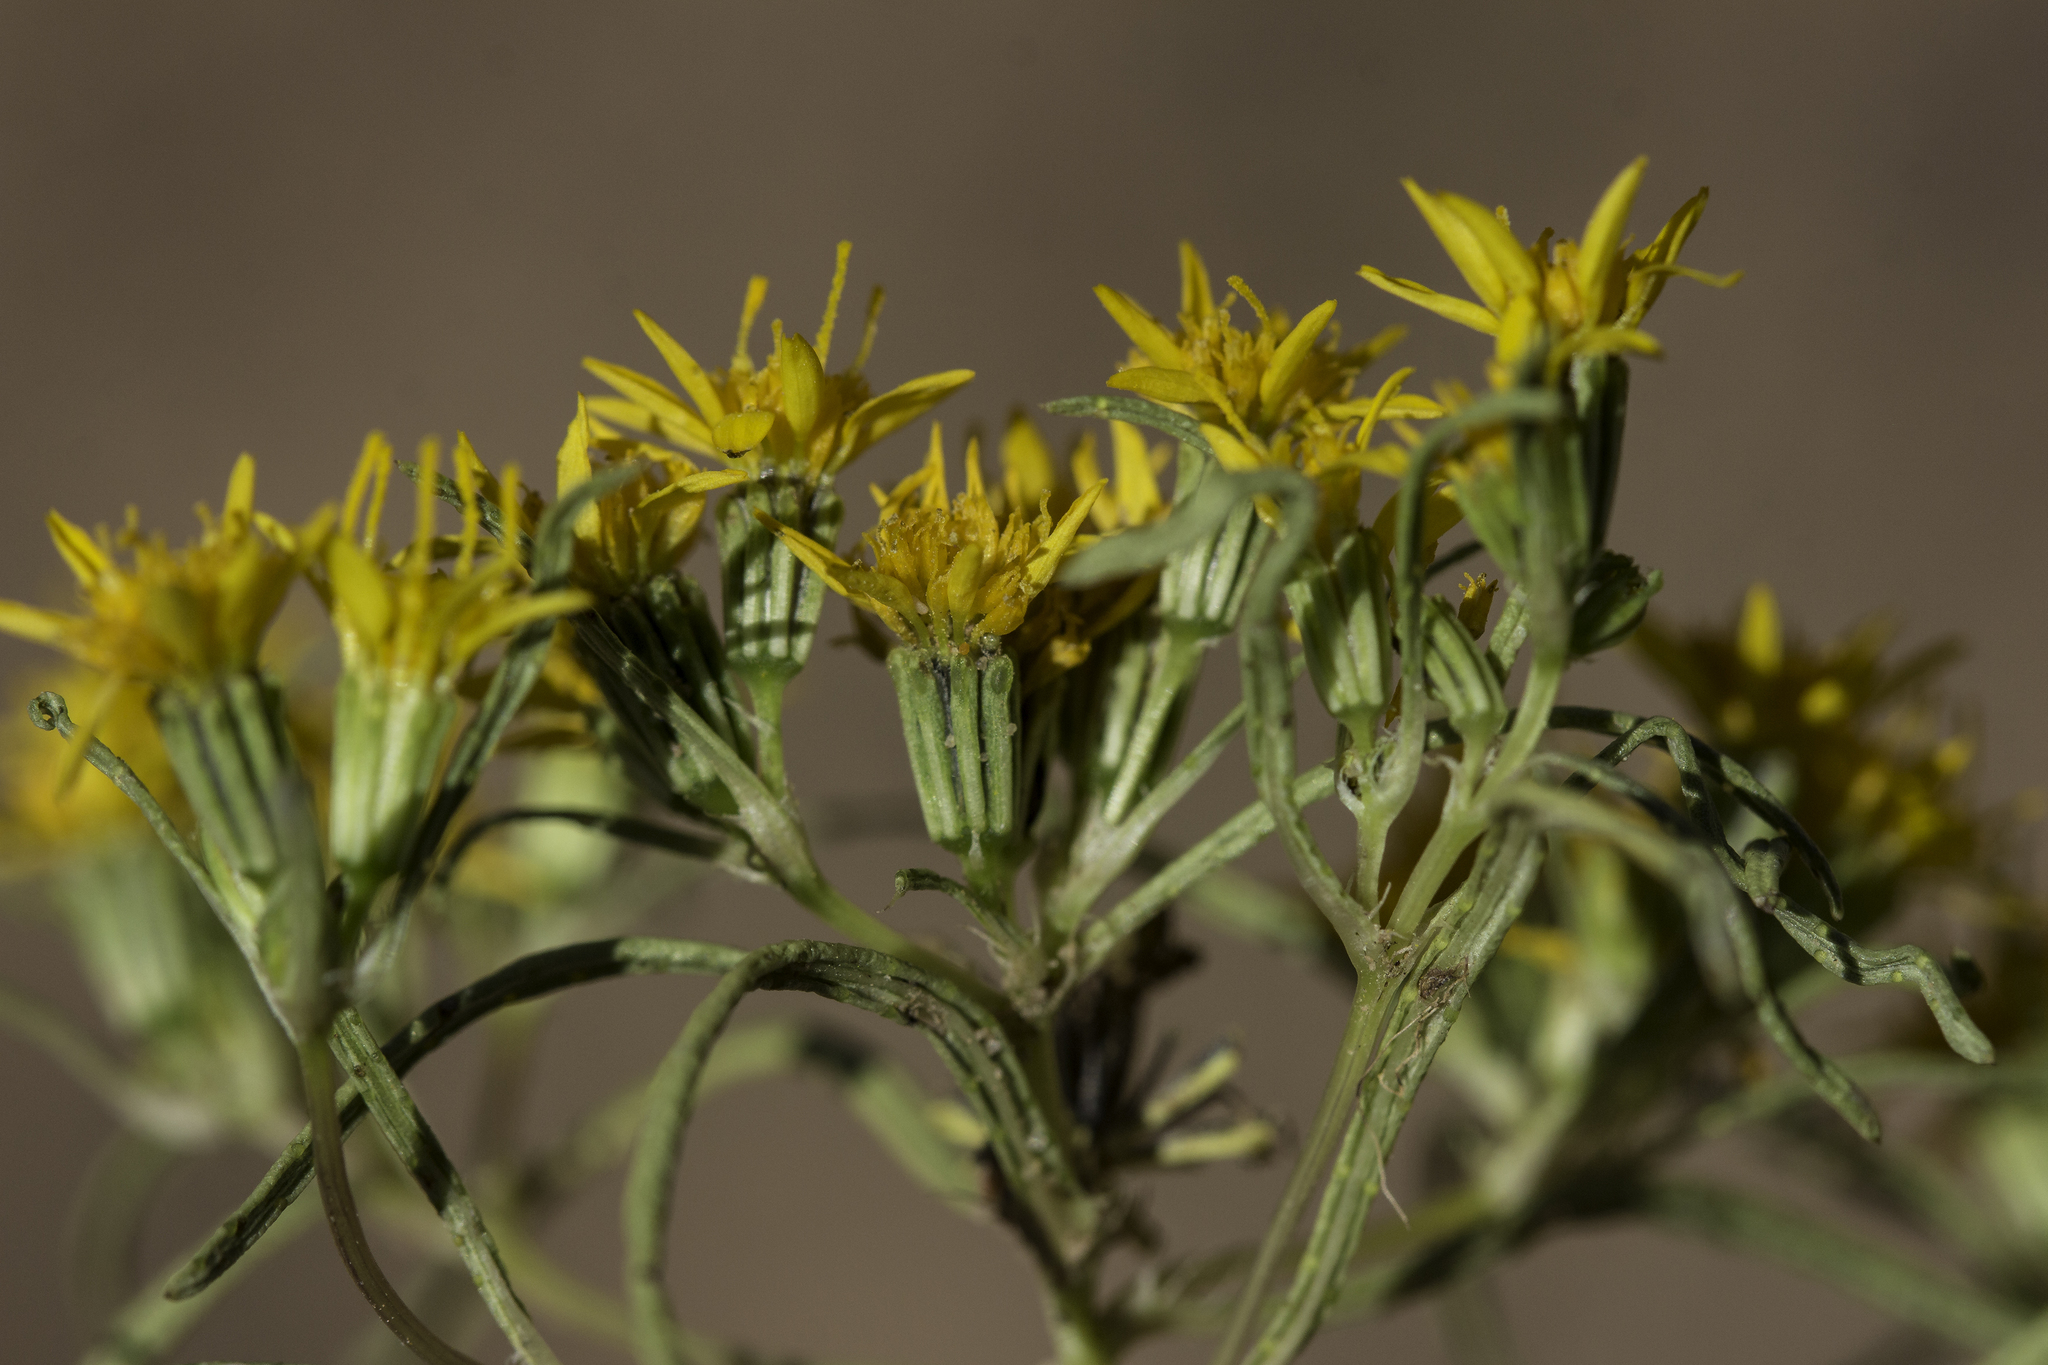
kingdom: Plantae
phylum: Tracheophyta
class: Magnoliopsida
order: Asterales
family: Asteraceae
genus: Pectis
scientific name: Pectis angustifolia
